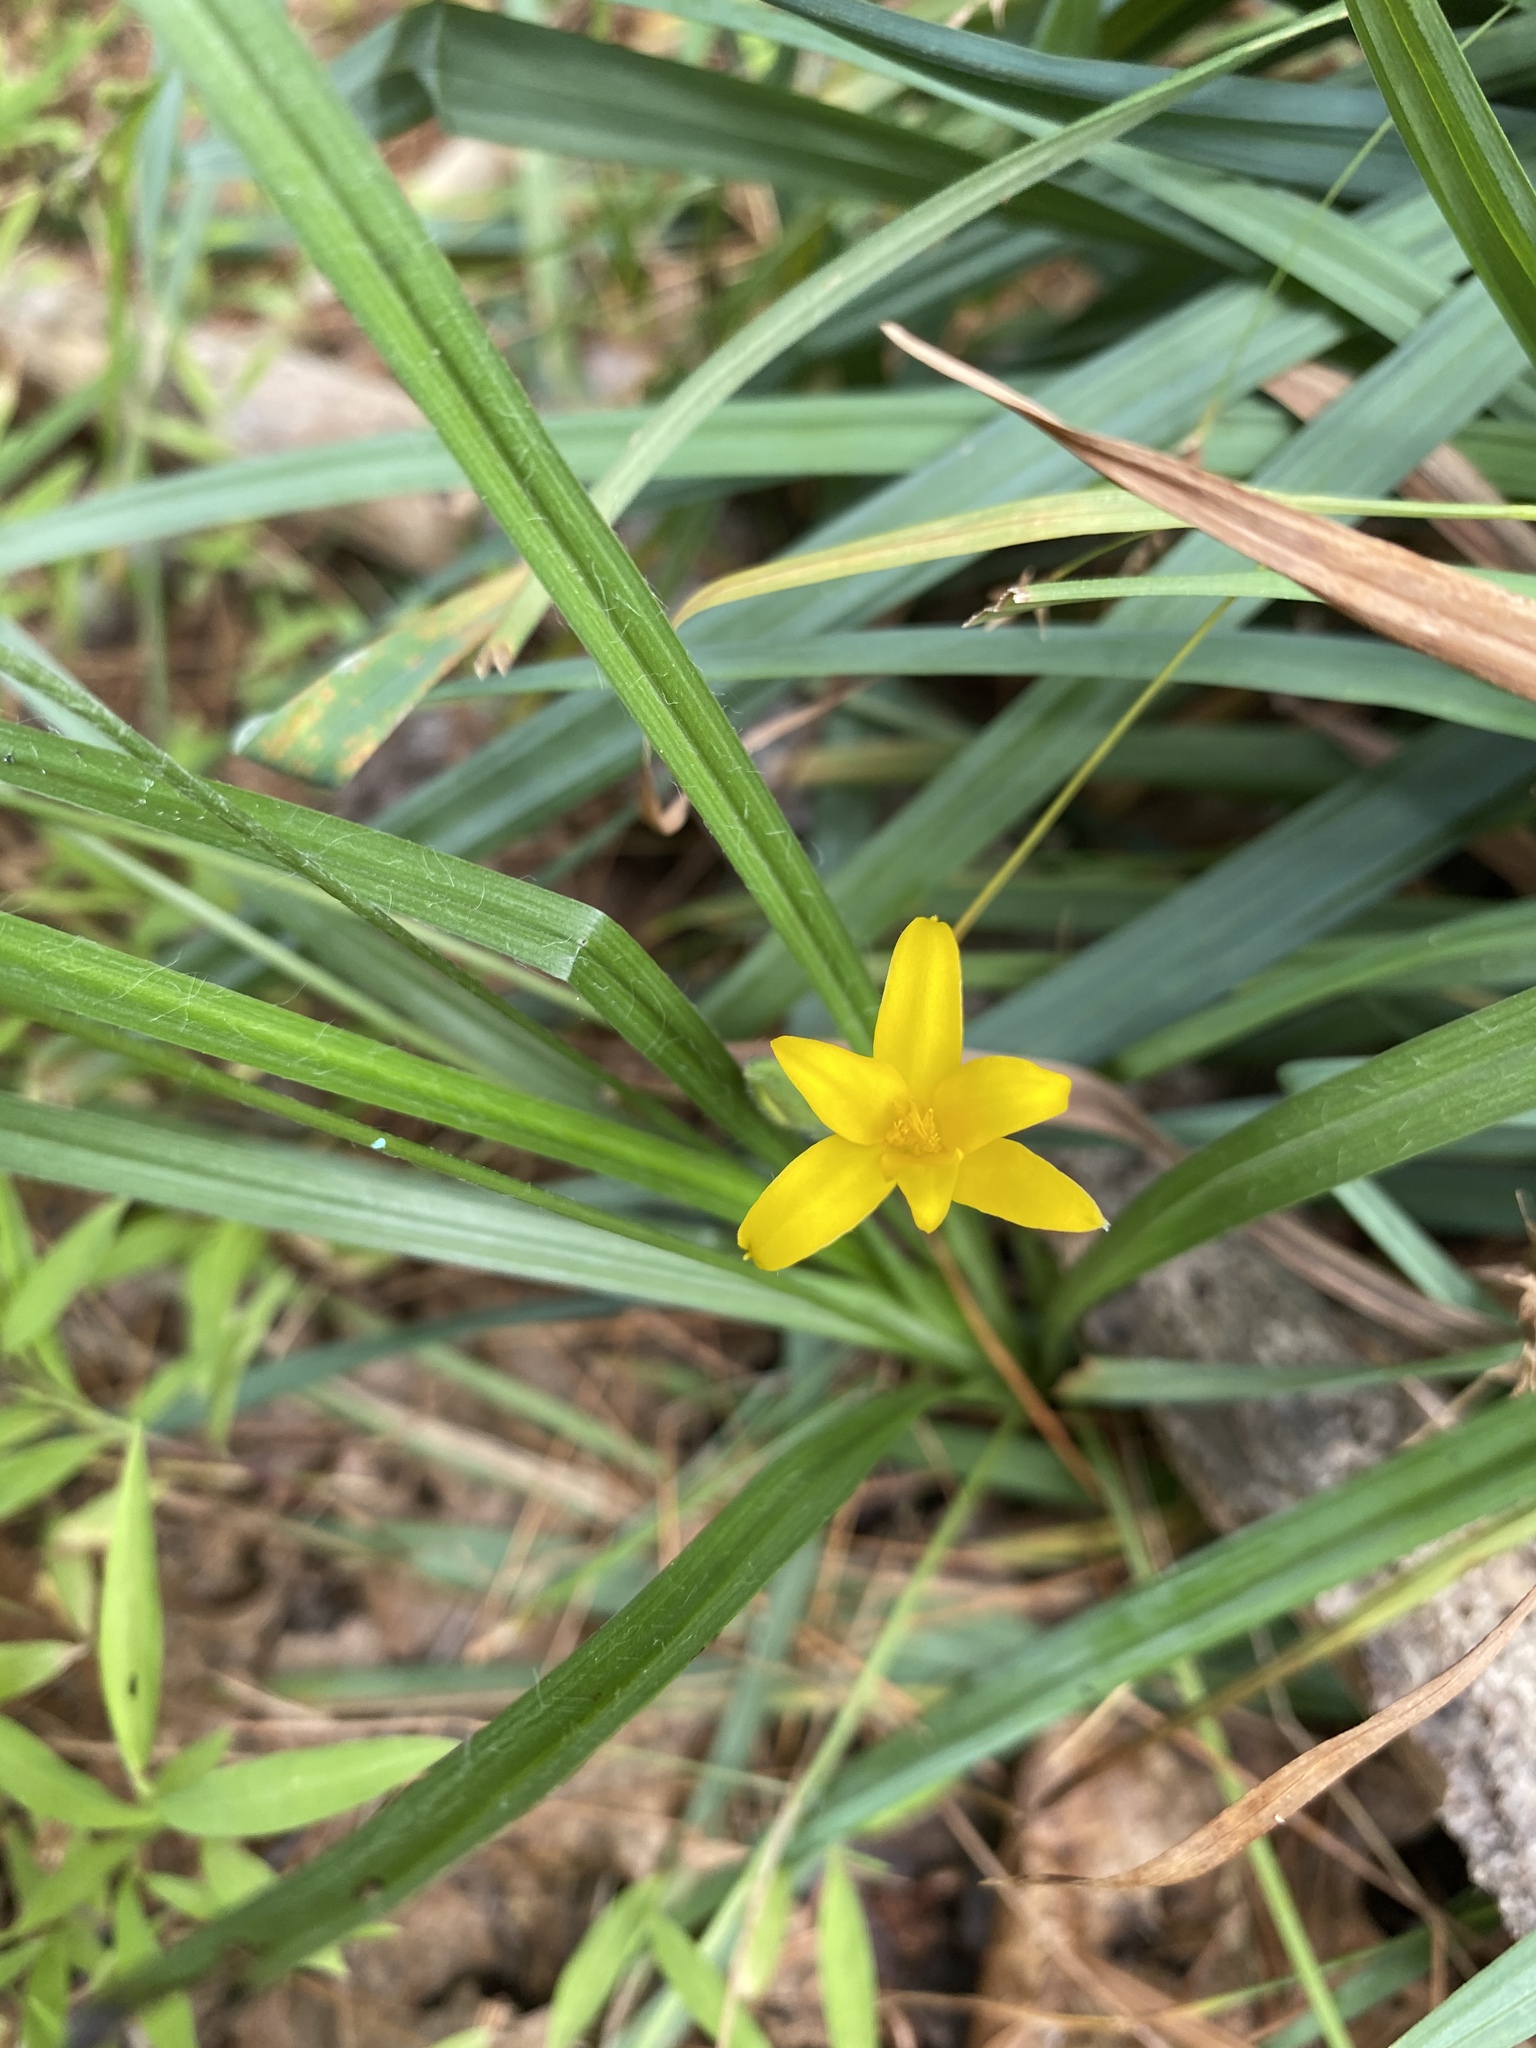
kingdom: Plantae
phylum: Tracheophyta
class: Liliopsida
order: Asparagales
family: Hypoxidaceae
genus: Hypoxis
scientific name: Hypoxis hirsuta
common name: Common goldstar
